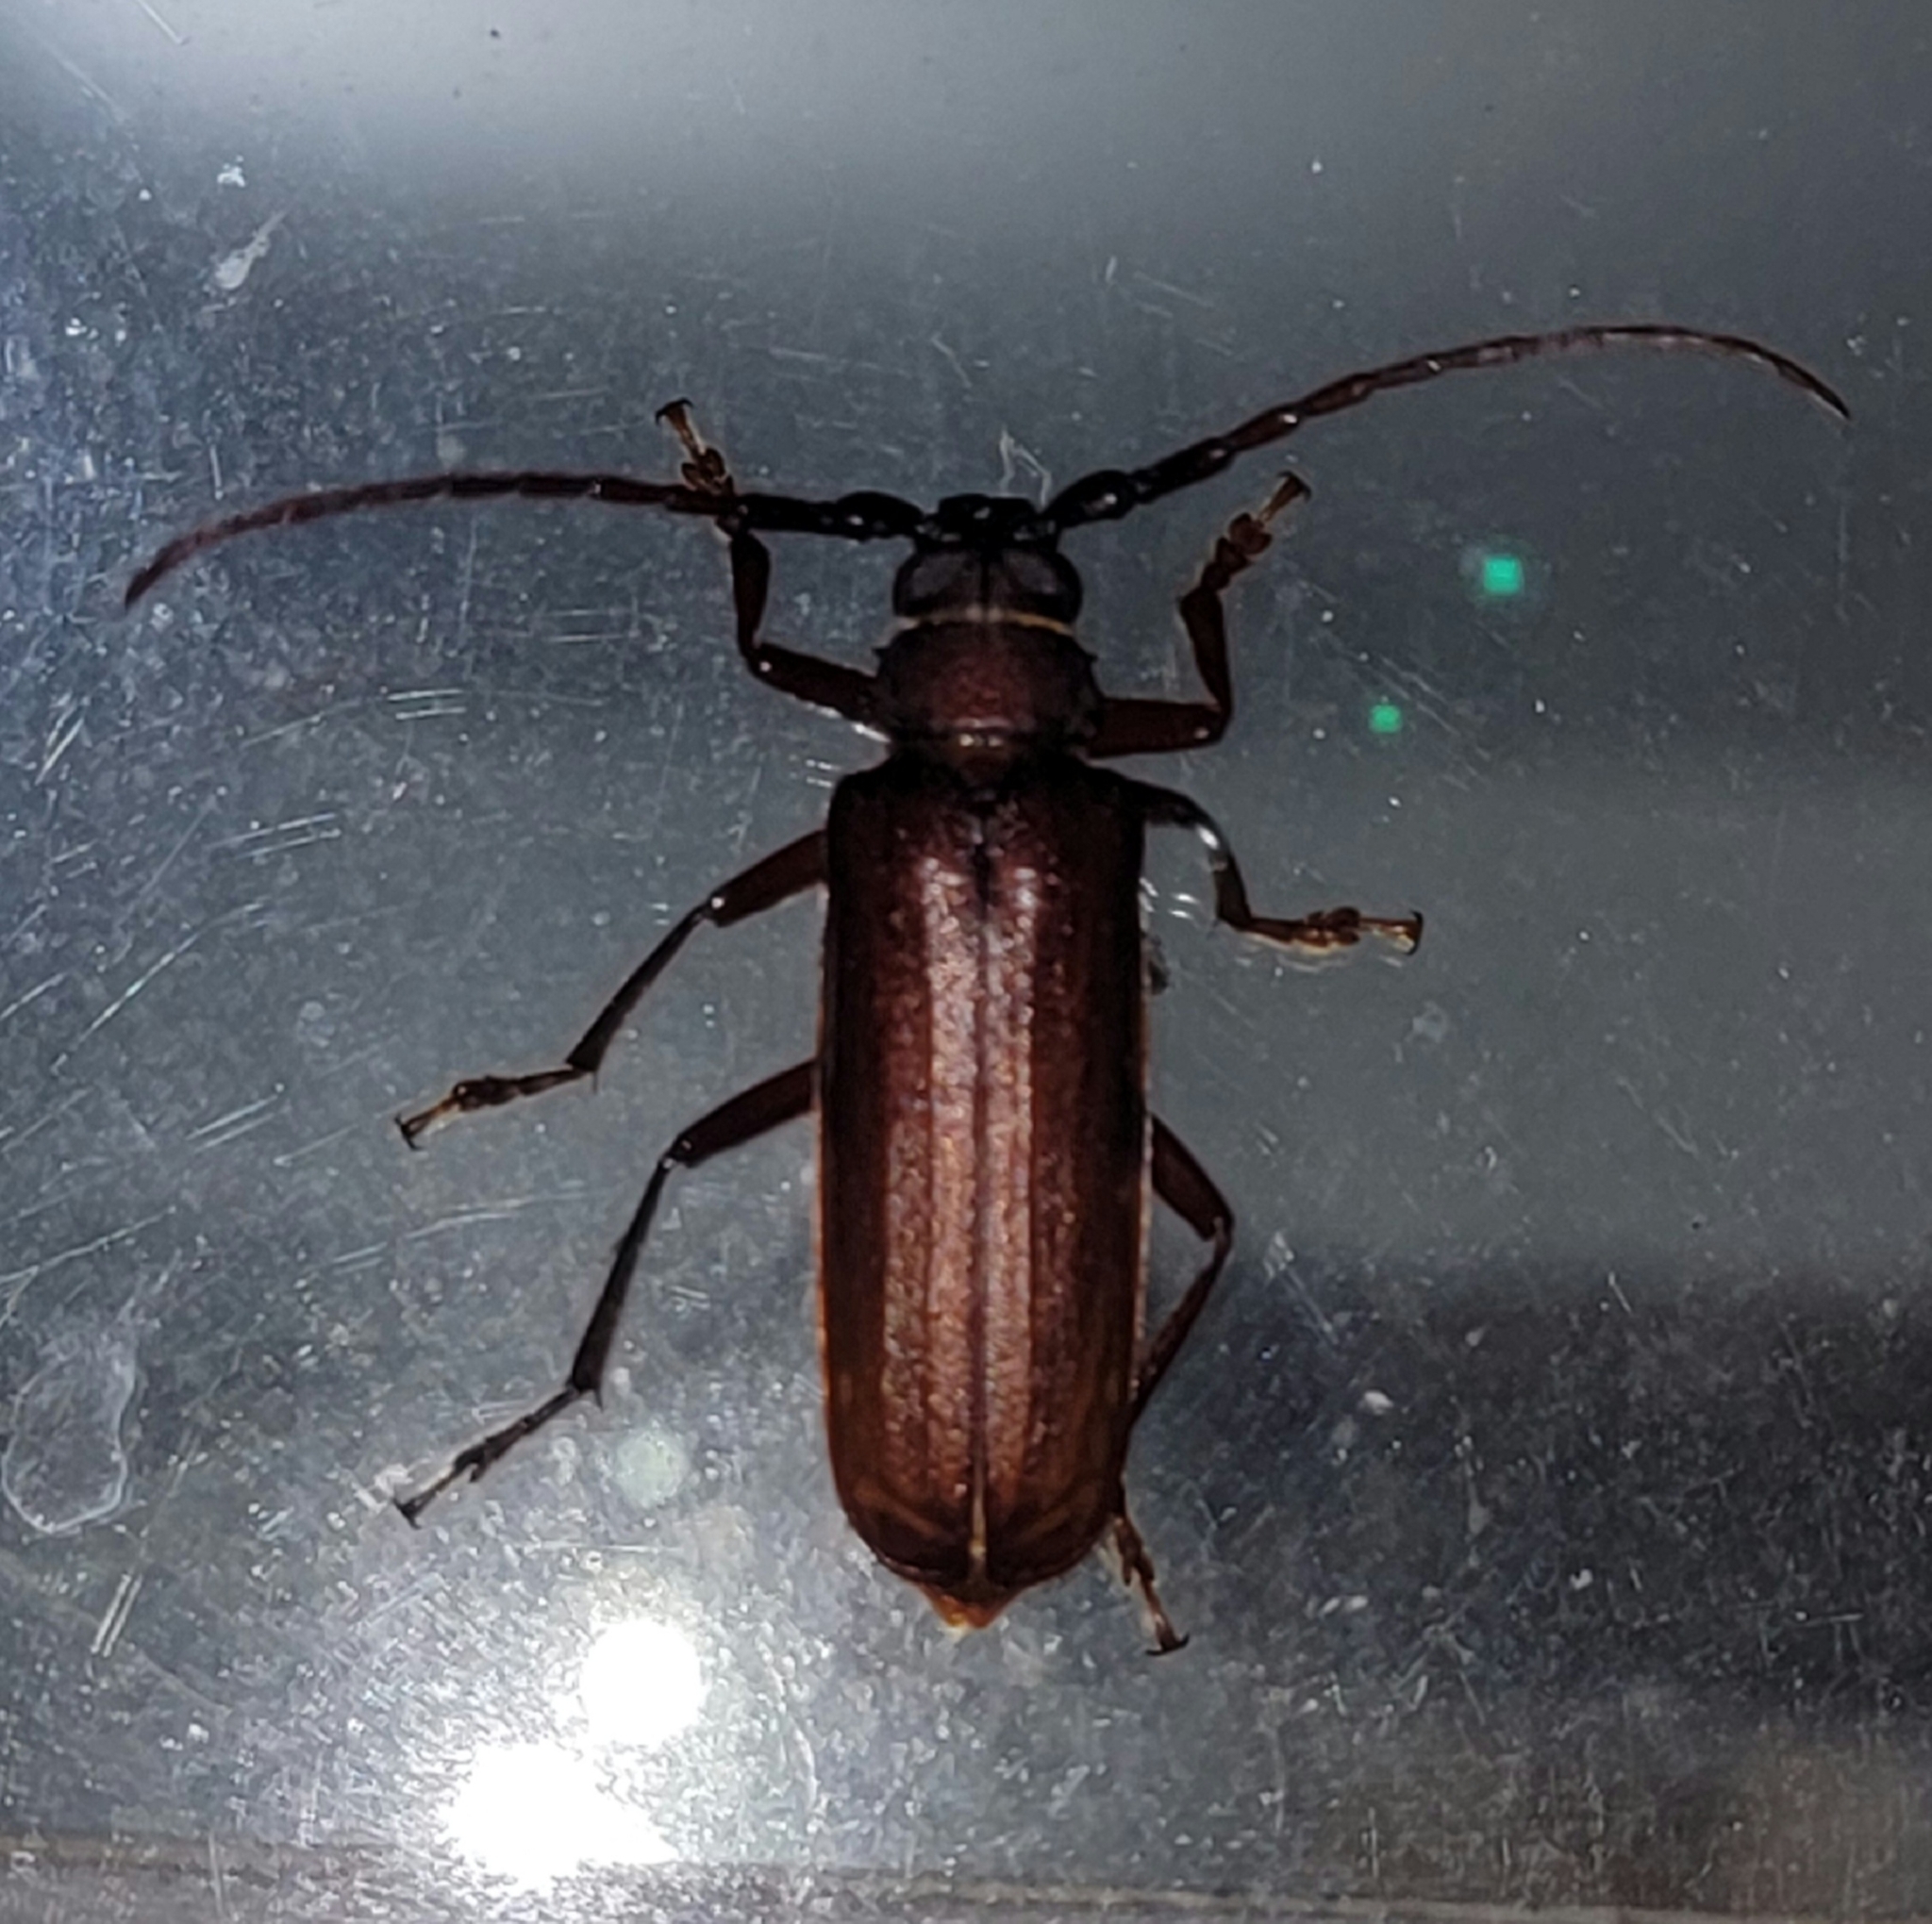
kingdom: Animalia
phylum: Arthropoda
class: Insecta
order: Coleoptera
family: Cerambycidae
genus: Orthosoma
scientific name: Orthosoma brunneum
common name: Brown prionid beetle
